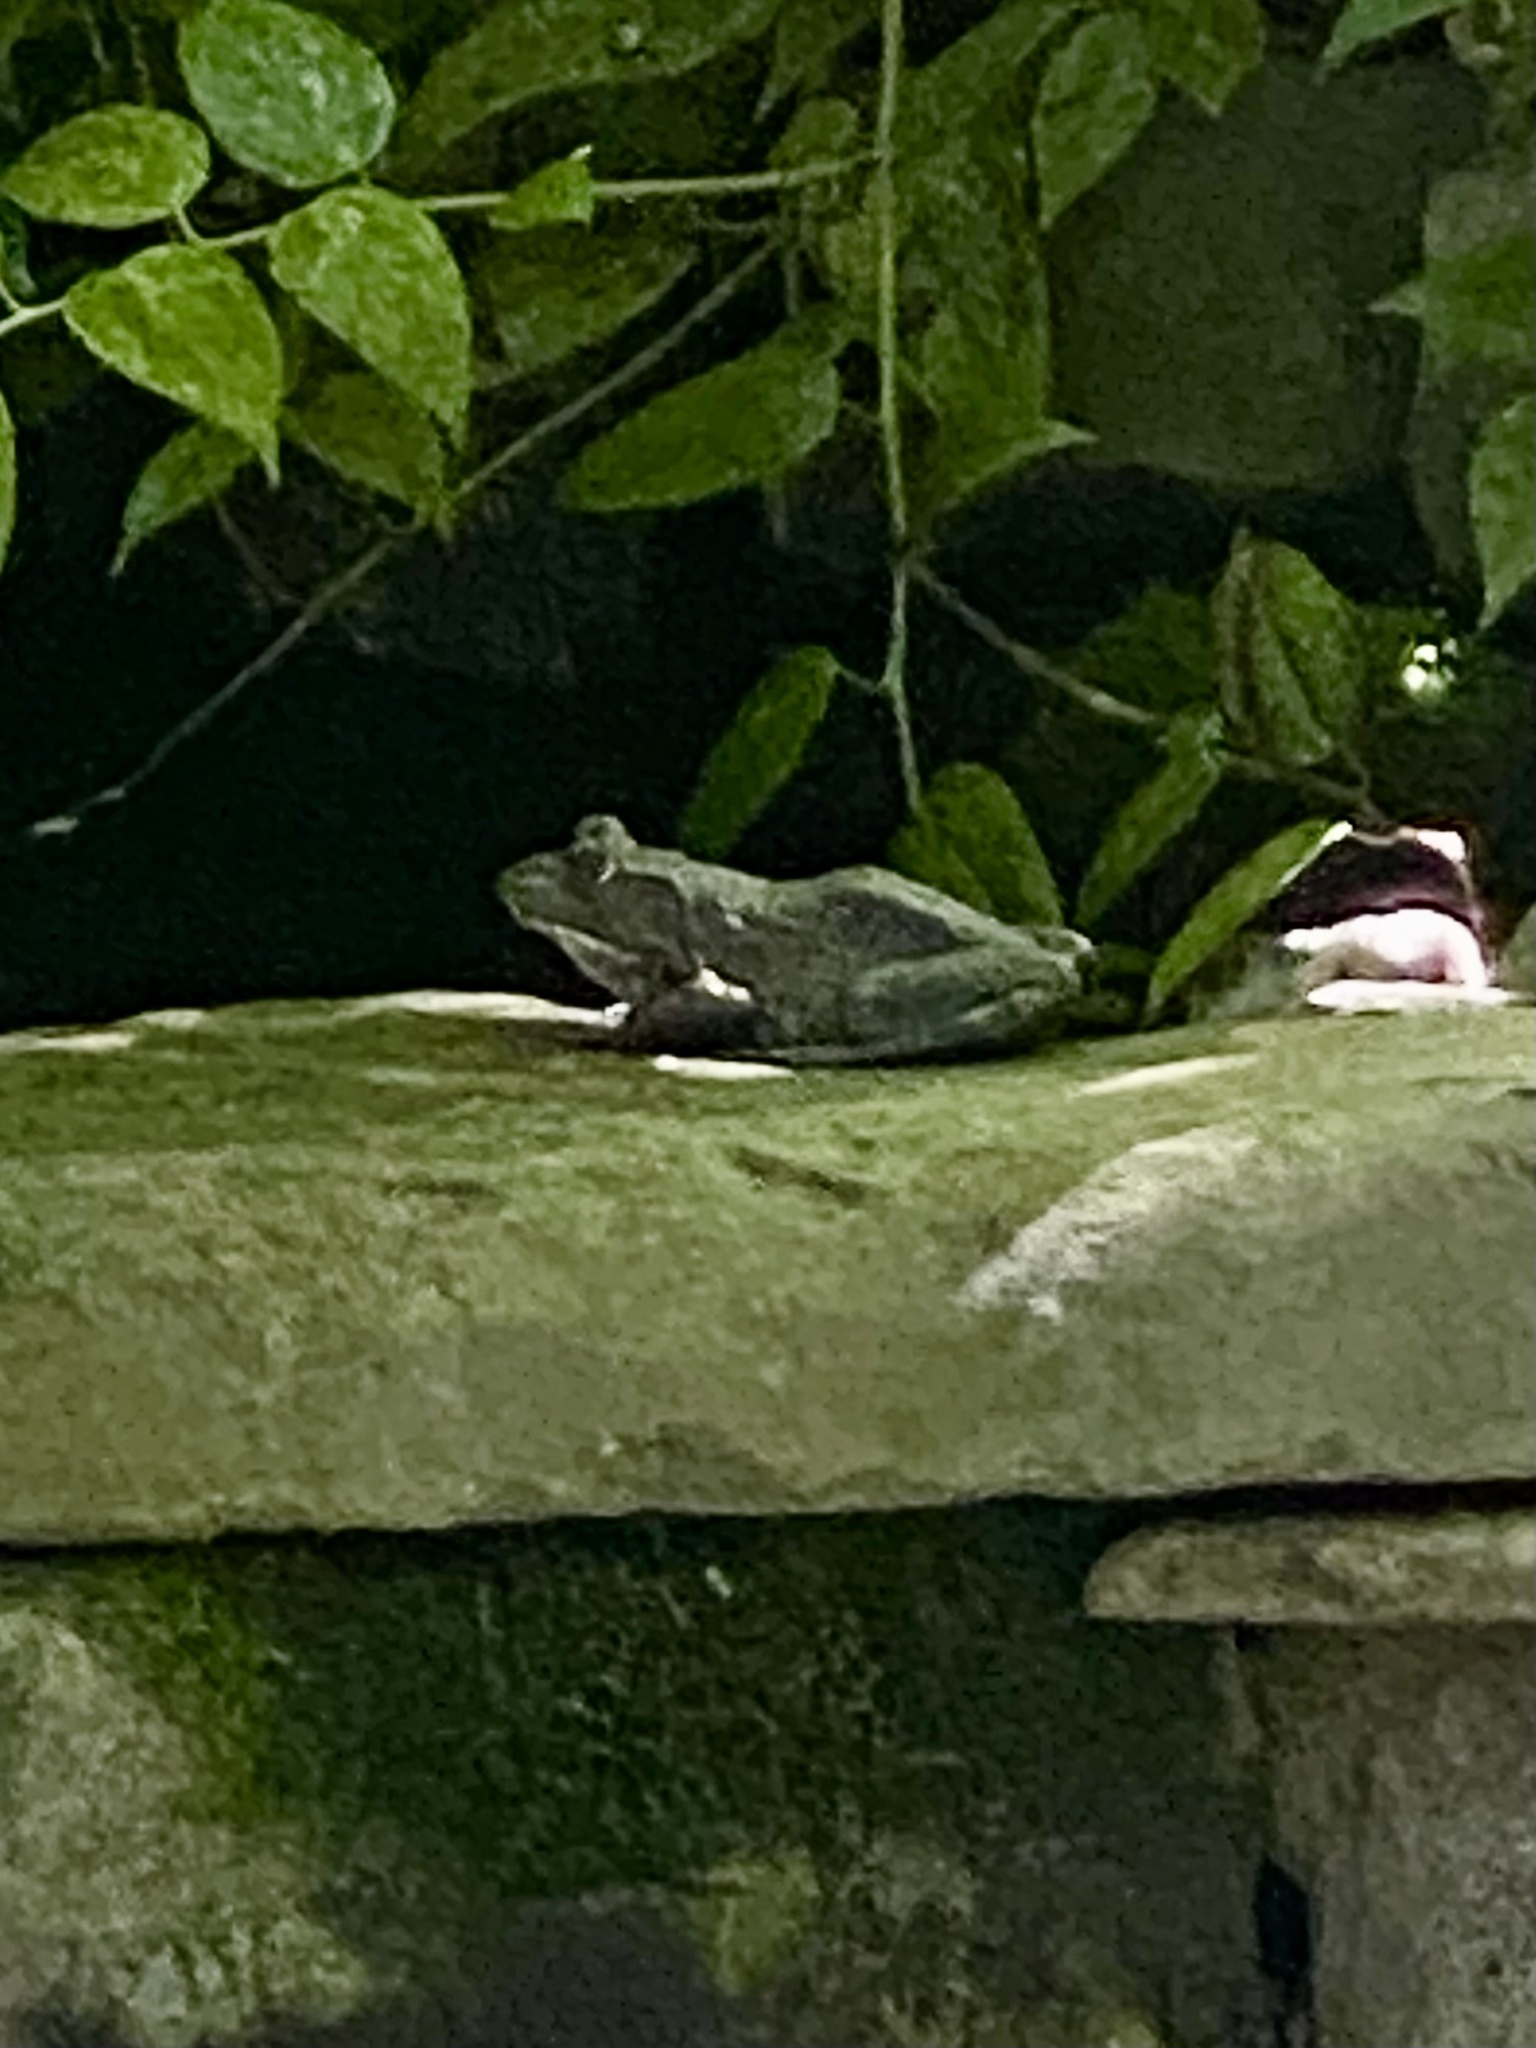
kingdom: Animalia
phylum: Chordata
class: Amphibia
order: Anura
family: Ranidae
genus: Lithobates
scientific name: Lithobates catesbeianus
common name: American bullfrog
